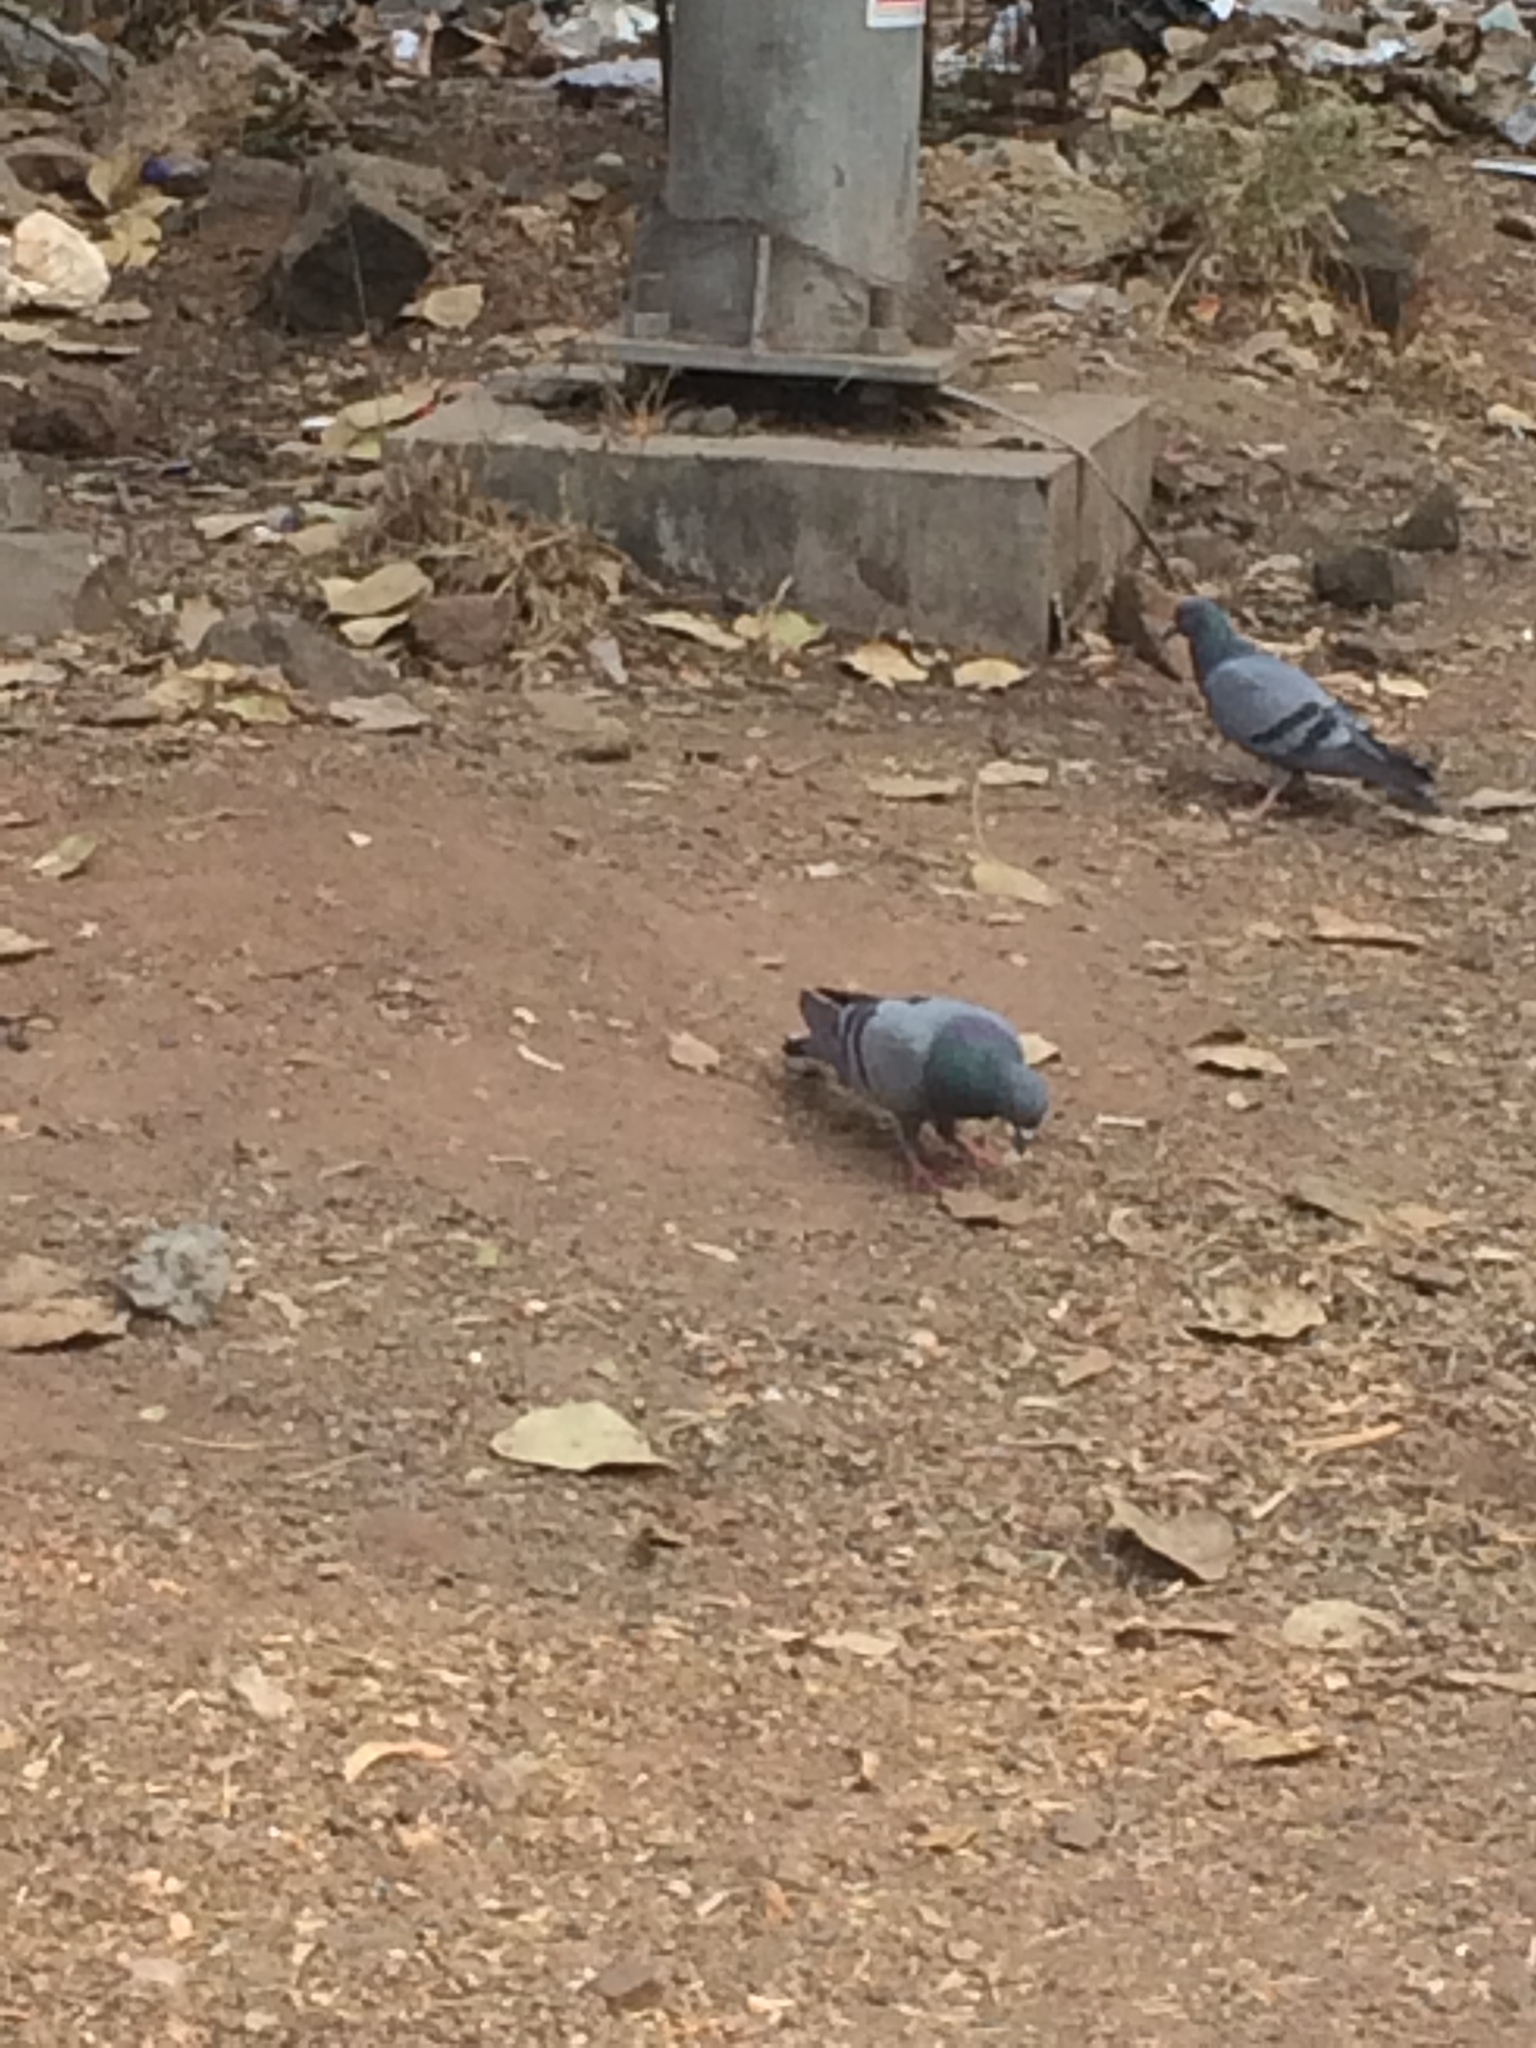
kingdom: Animalia
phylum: Chordata
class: Aves
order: Columbiformes
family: Columbidae
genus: Columba
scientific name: Columba livia
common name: Rock pigeon
